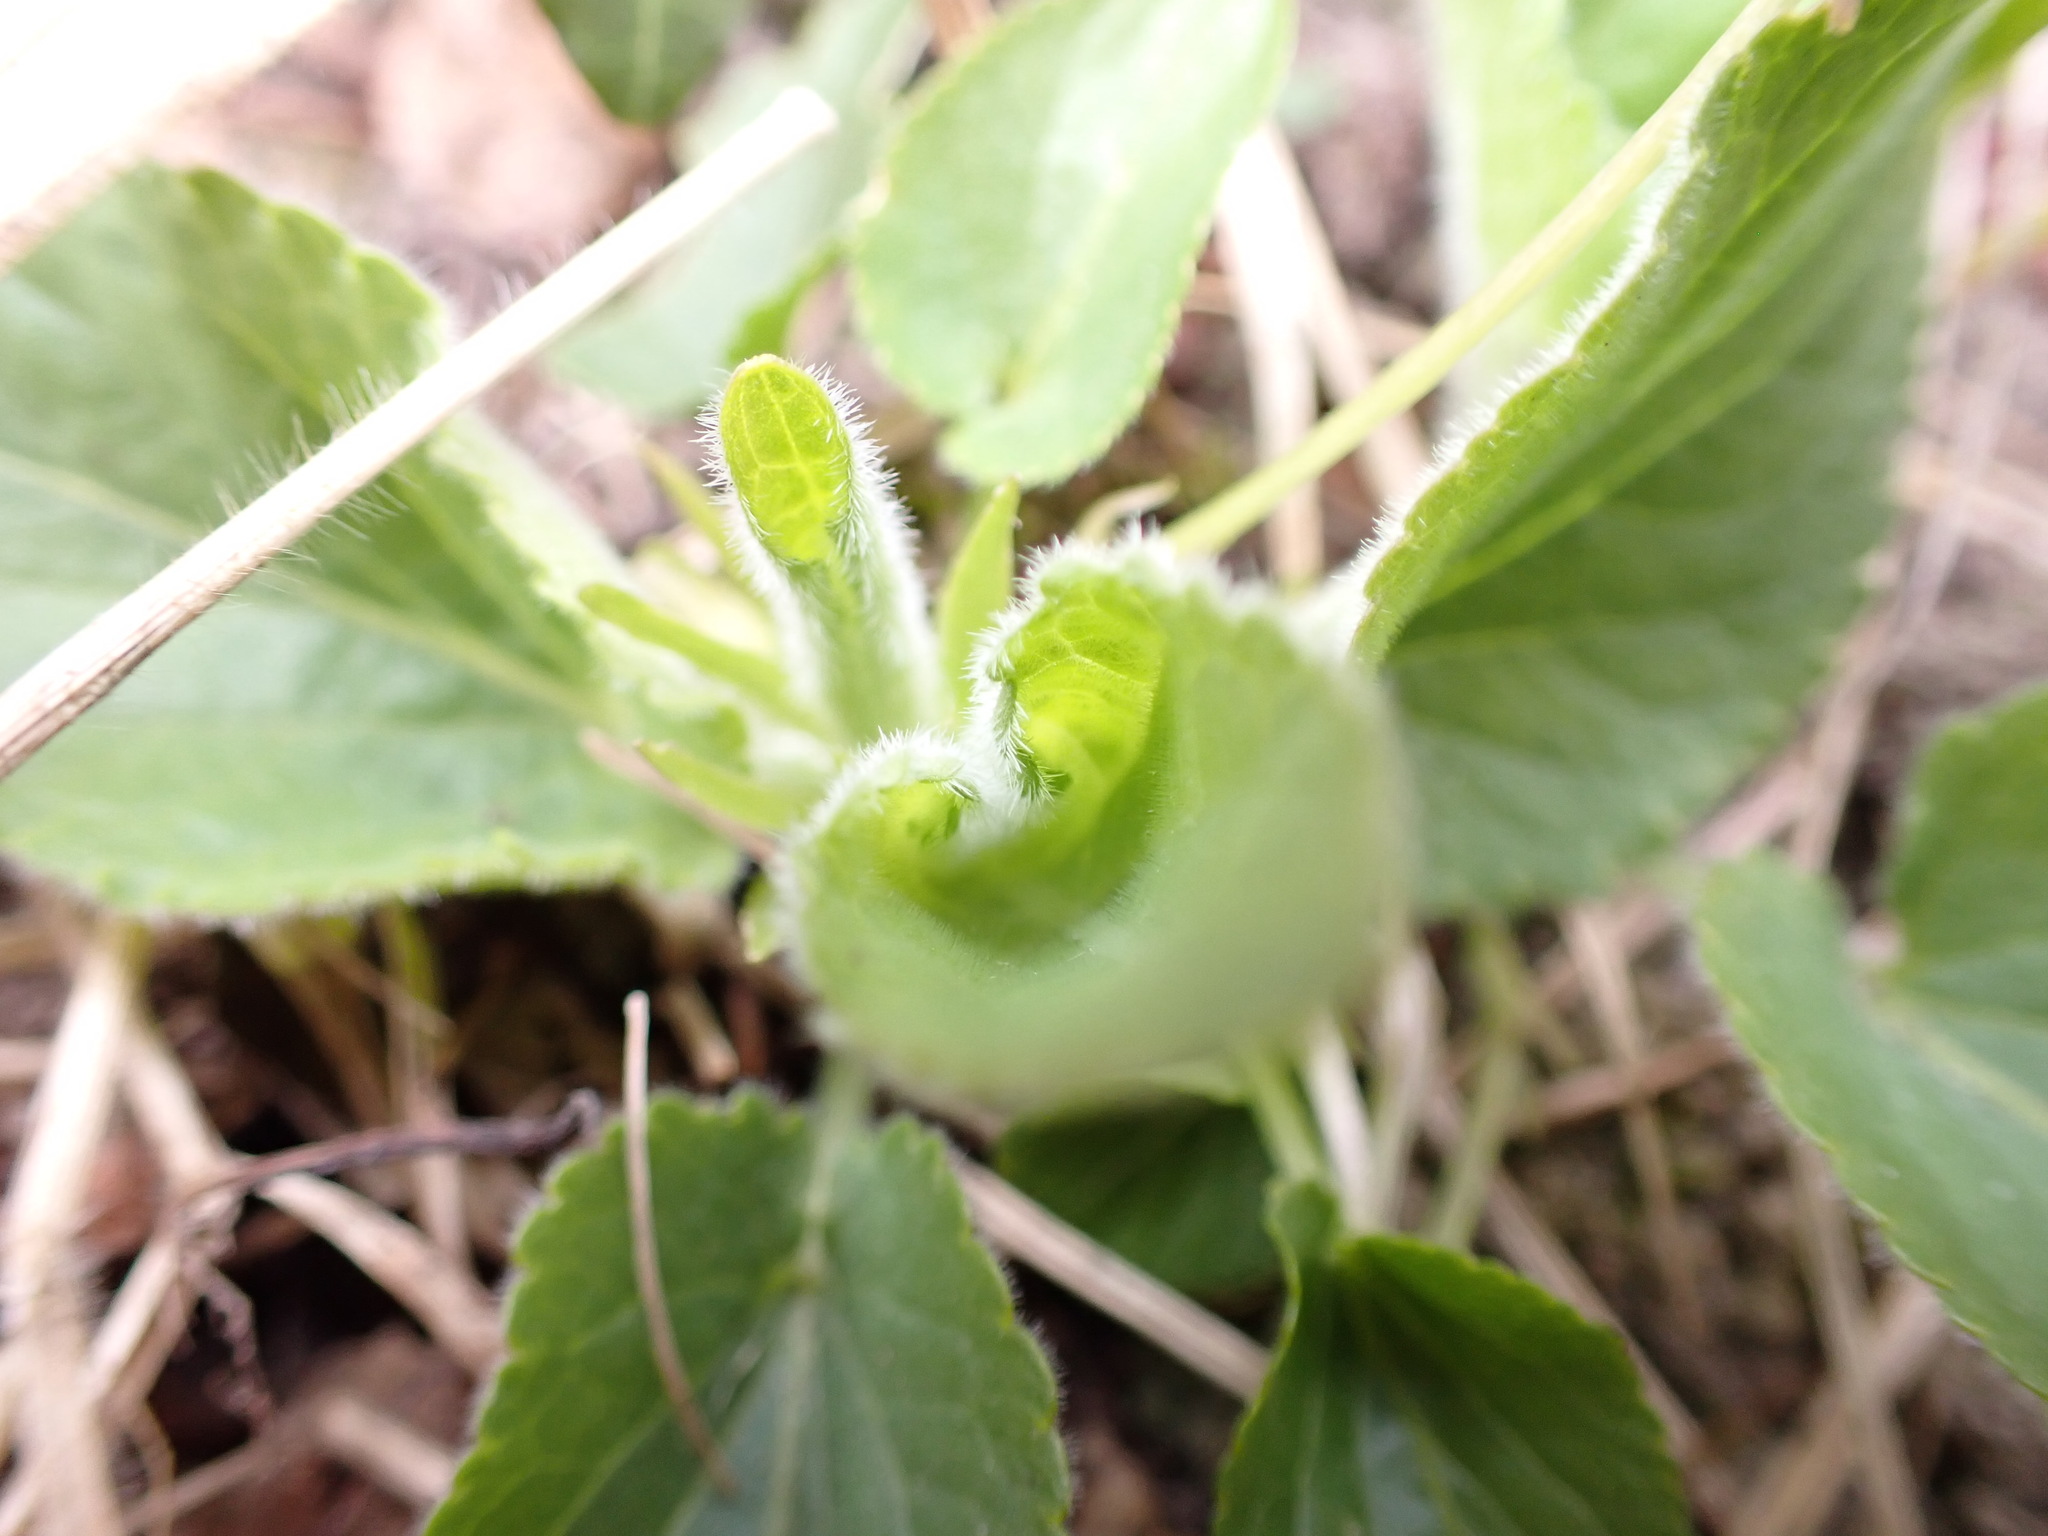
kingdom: Plantae
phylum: Tracheophyta
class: Magnoliopsida
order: Malpighiales
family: Violaceae
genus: Viola
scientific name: Viola hirta
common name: Hairy violet
